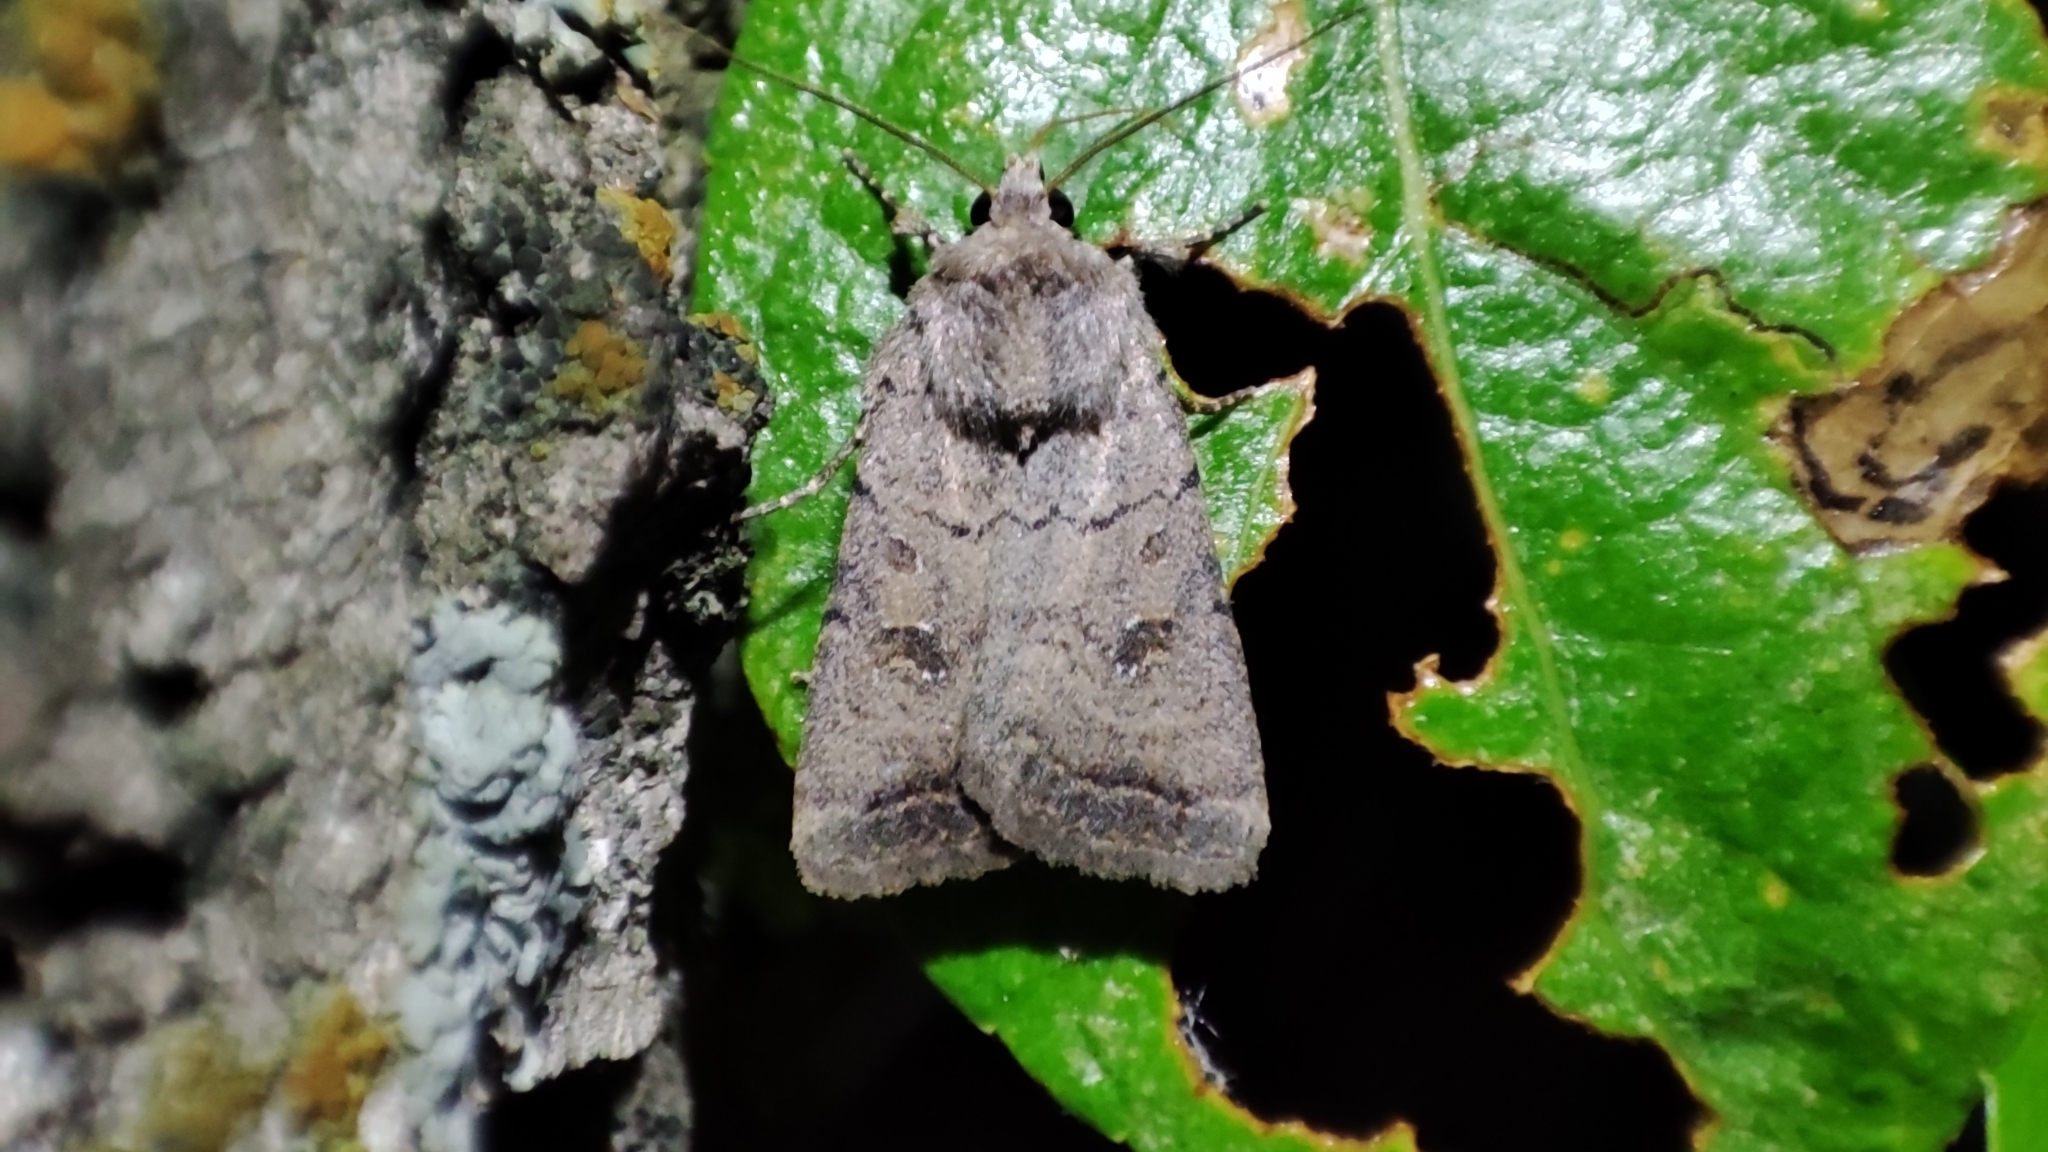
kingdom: Animalia
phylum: Arthropoda
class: Insecta
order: Lepidoptera
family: Noctuidae
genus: Caradrina
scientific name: Caradrina terrea
